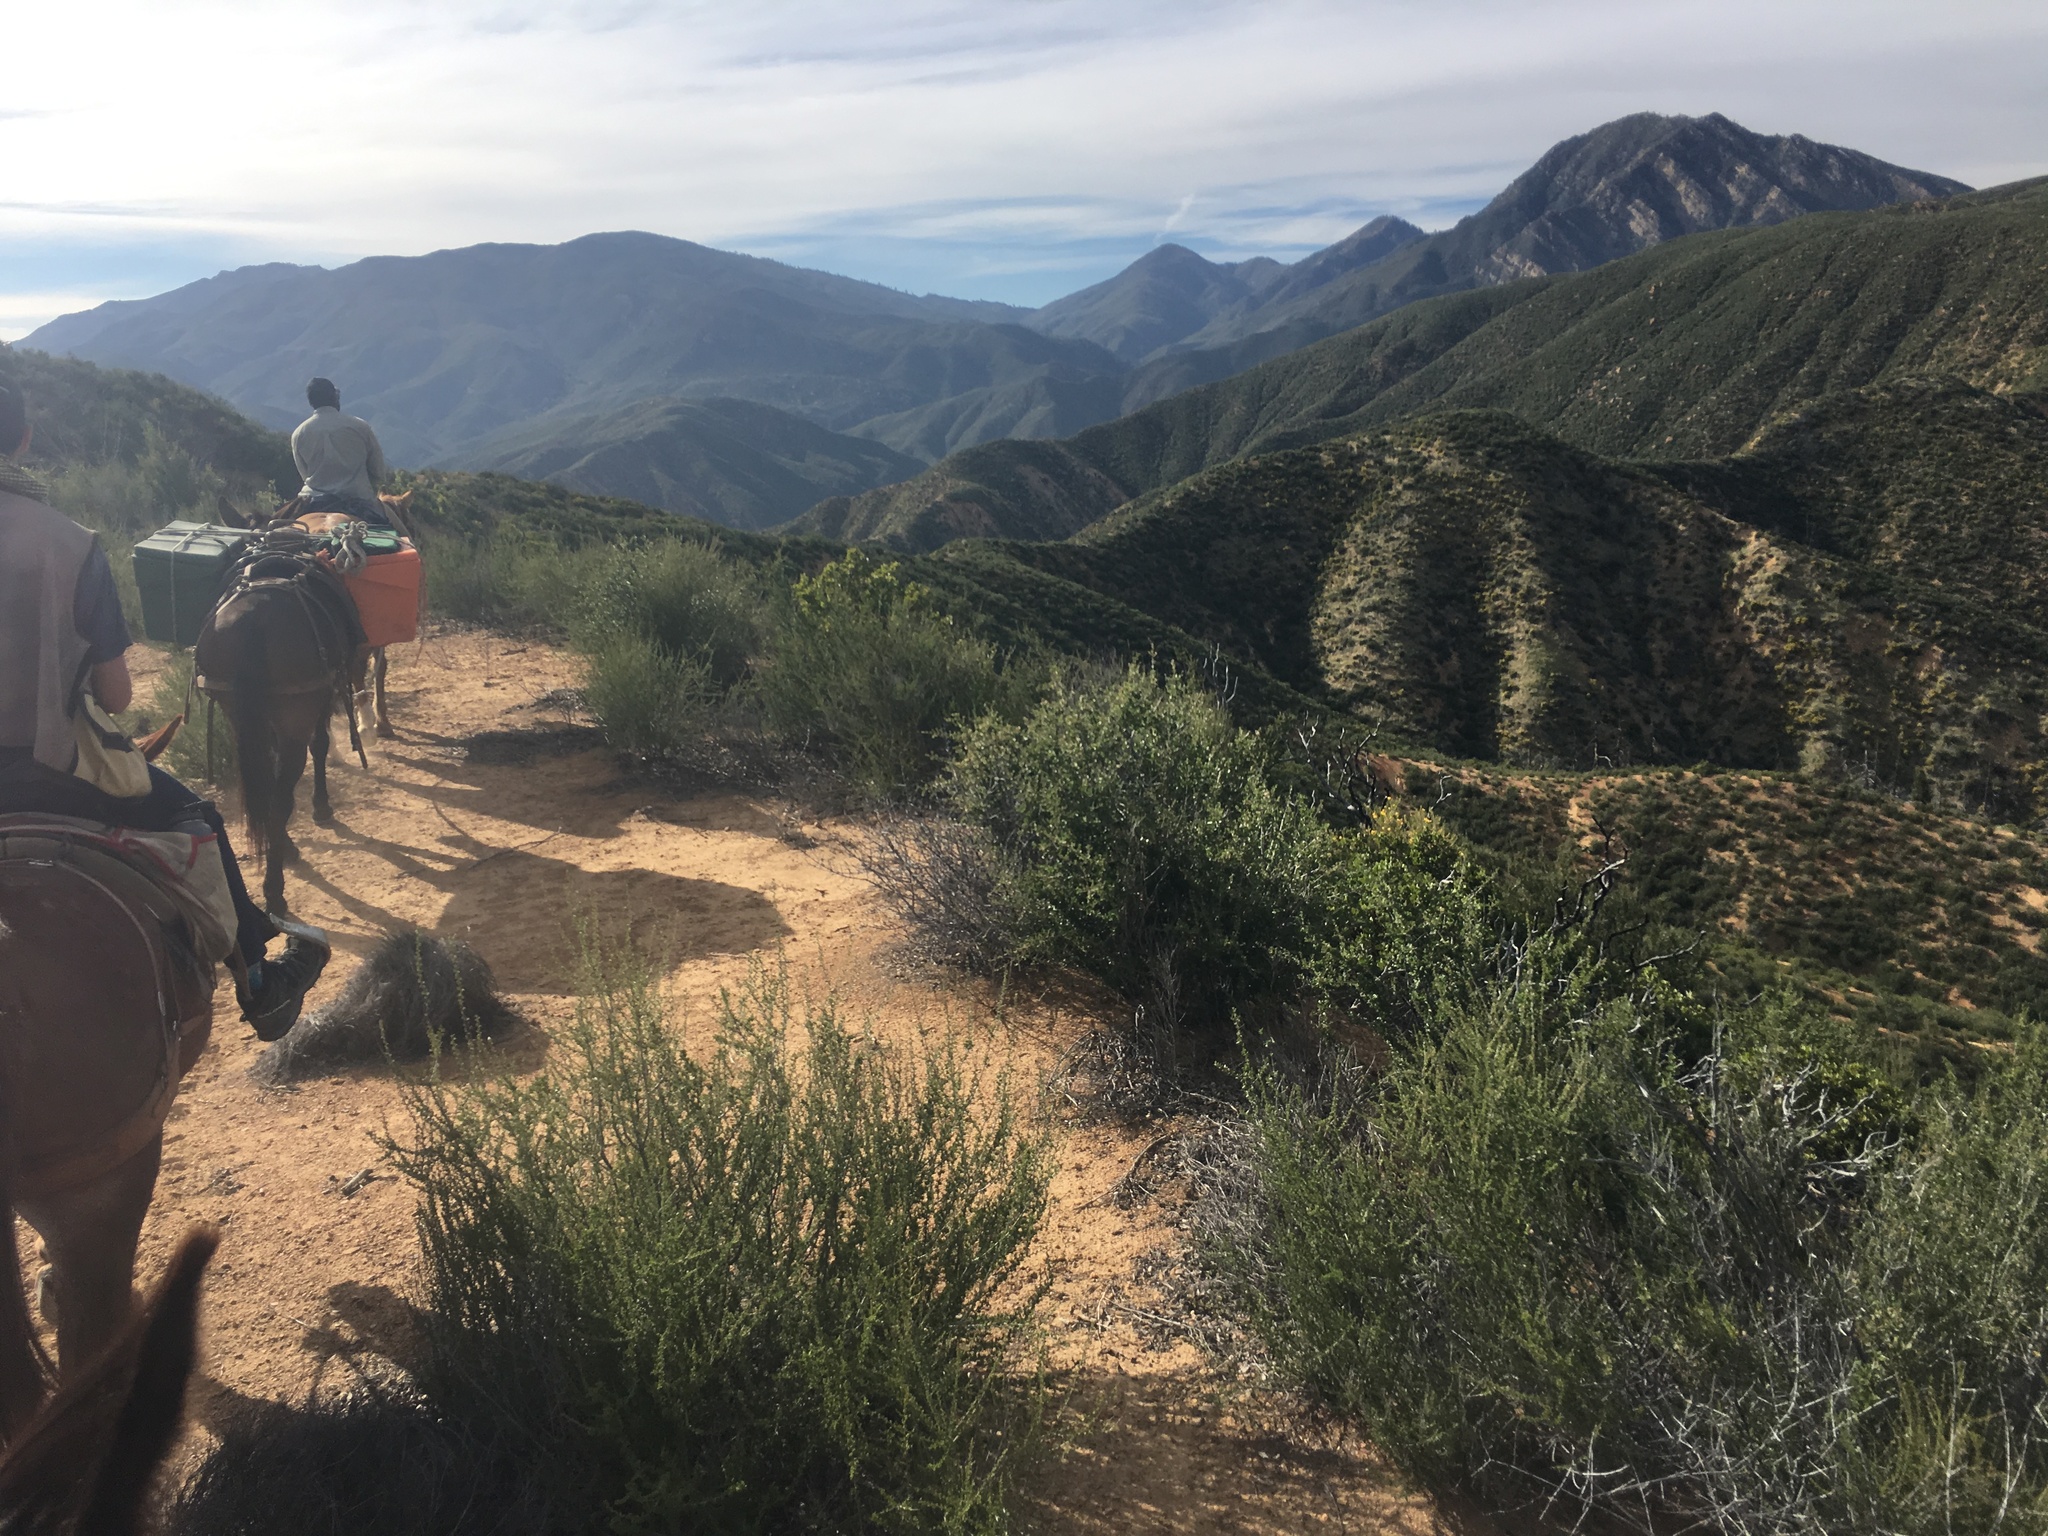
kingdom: Plantae
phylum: Tracheophyta
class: Magnoliopsida
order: Rosales
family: Rosaceae
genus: Adenostoma
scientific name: Adenostoma fasciculatum
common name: Chamise
